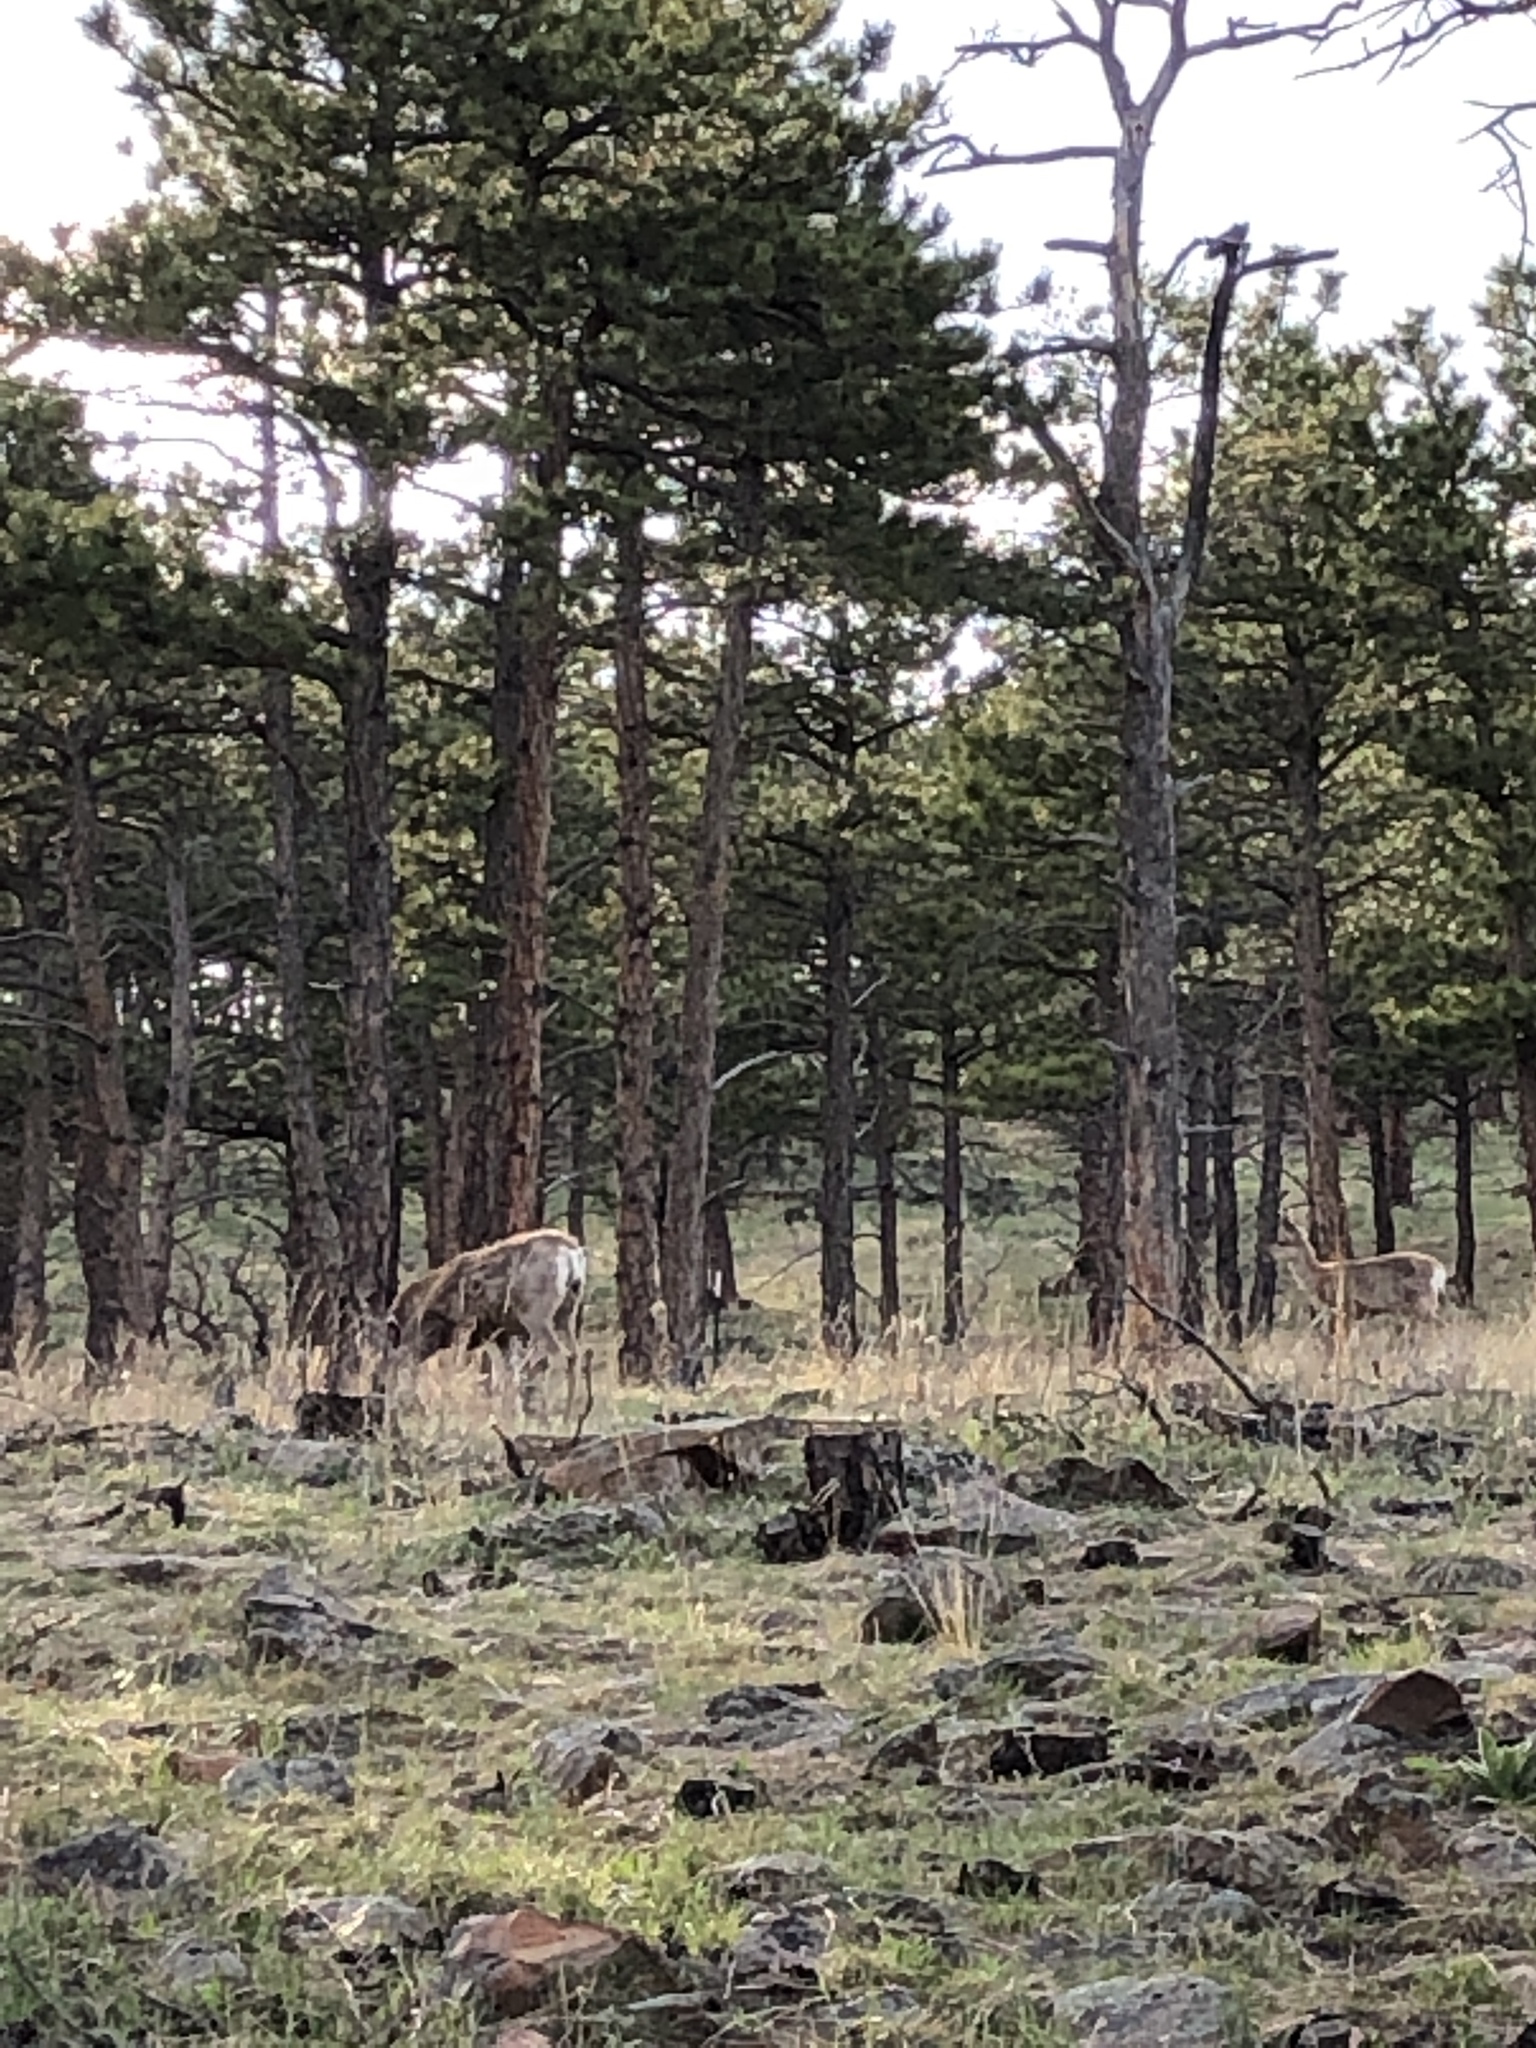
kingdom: Animalia
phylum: Chordata
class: Mammalia
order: Artiodactyla
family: Cervidae
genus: Odocoileus
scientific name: Odocoileus hemionus
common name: Mule deer
